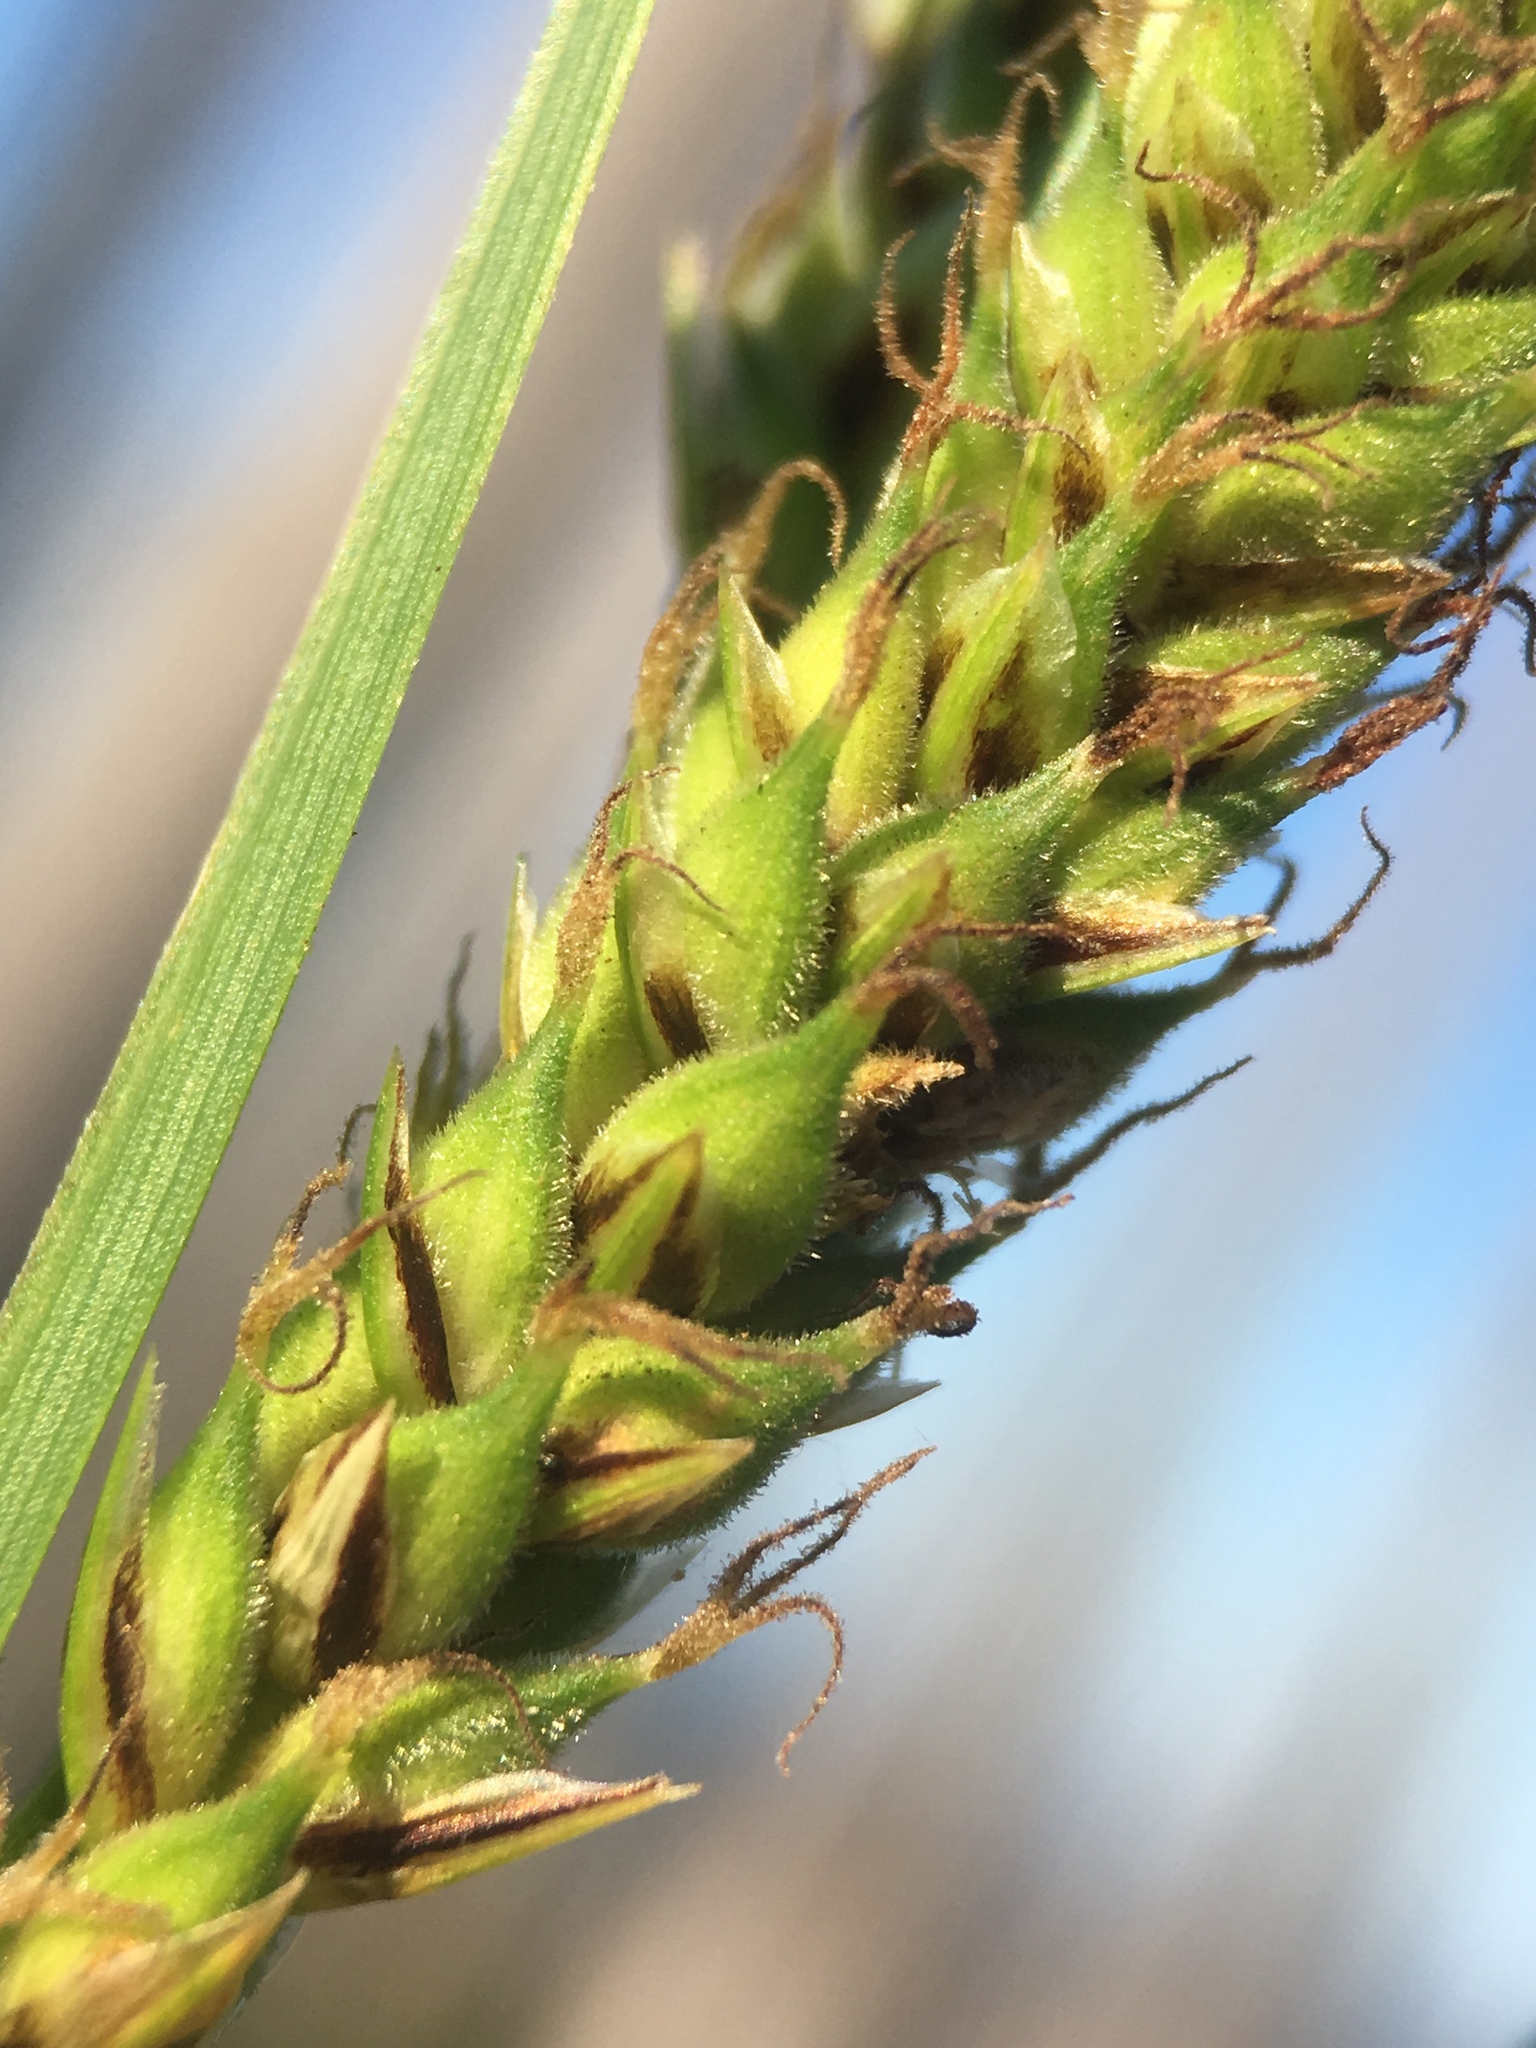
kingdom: Plantae
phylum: Tracheophyta
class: Liliopsida
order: Poales
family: Cyperaceae
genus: Carex
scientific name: Carex halliana
